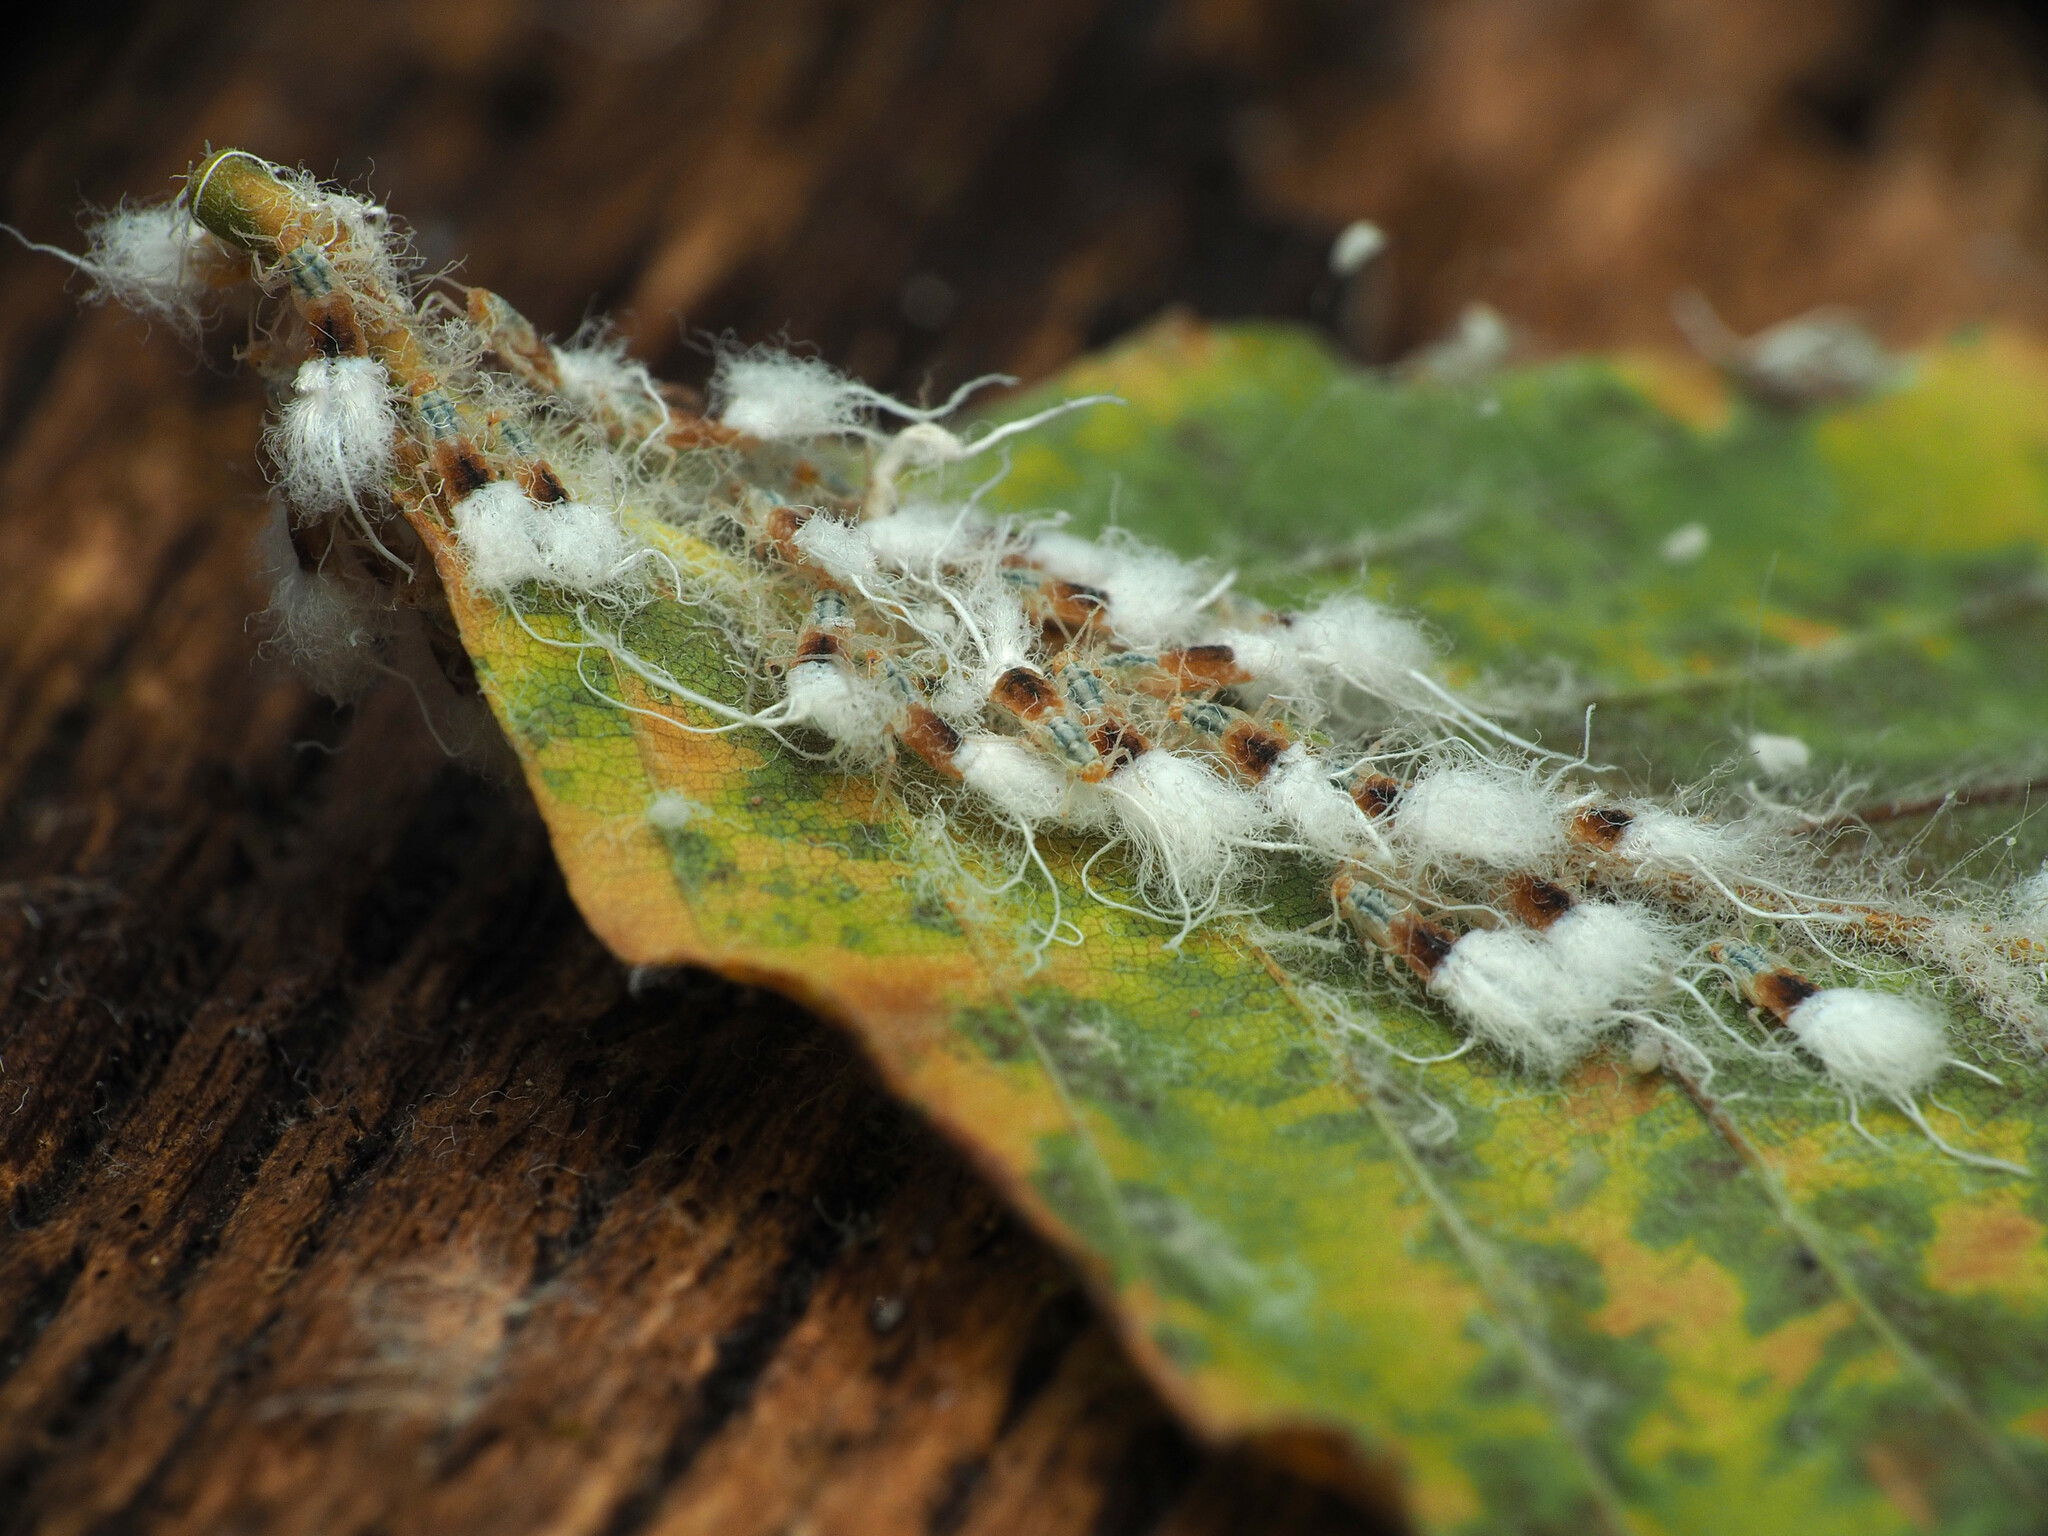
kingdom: Animalia
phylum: Arthropoda
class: Insecta
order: Hemiptera
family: Aphididae
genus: Grylloprociphilus
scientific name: Grylloprociphilus imbricator
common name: Beech blight aphid
